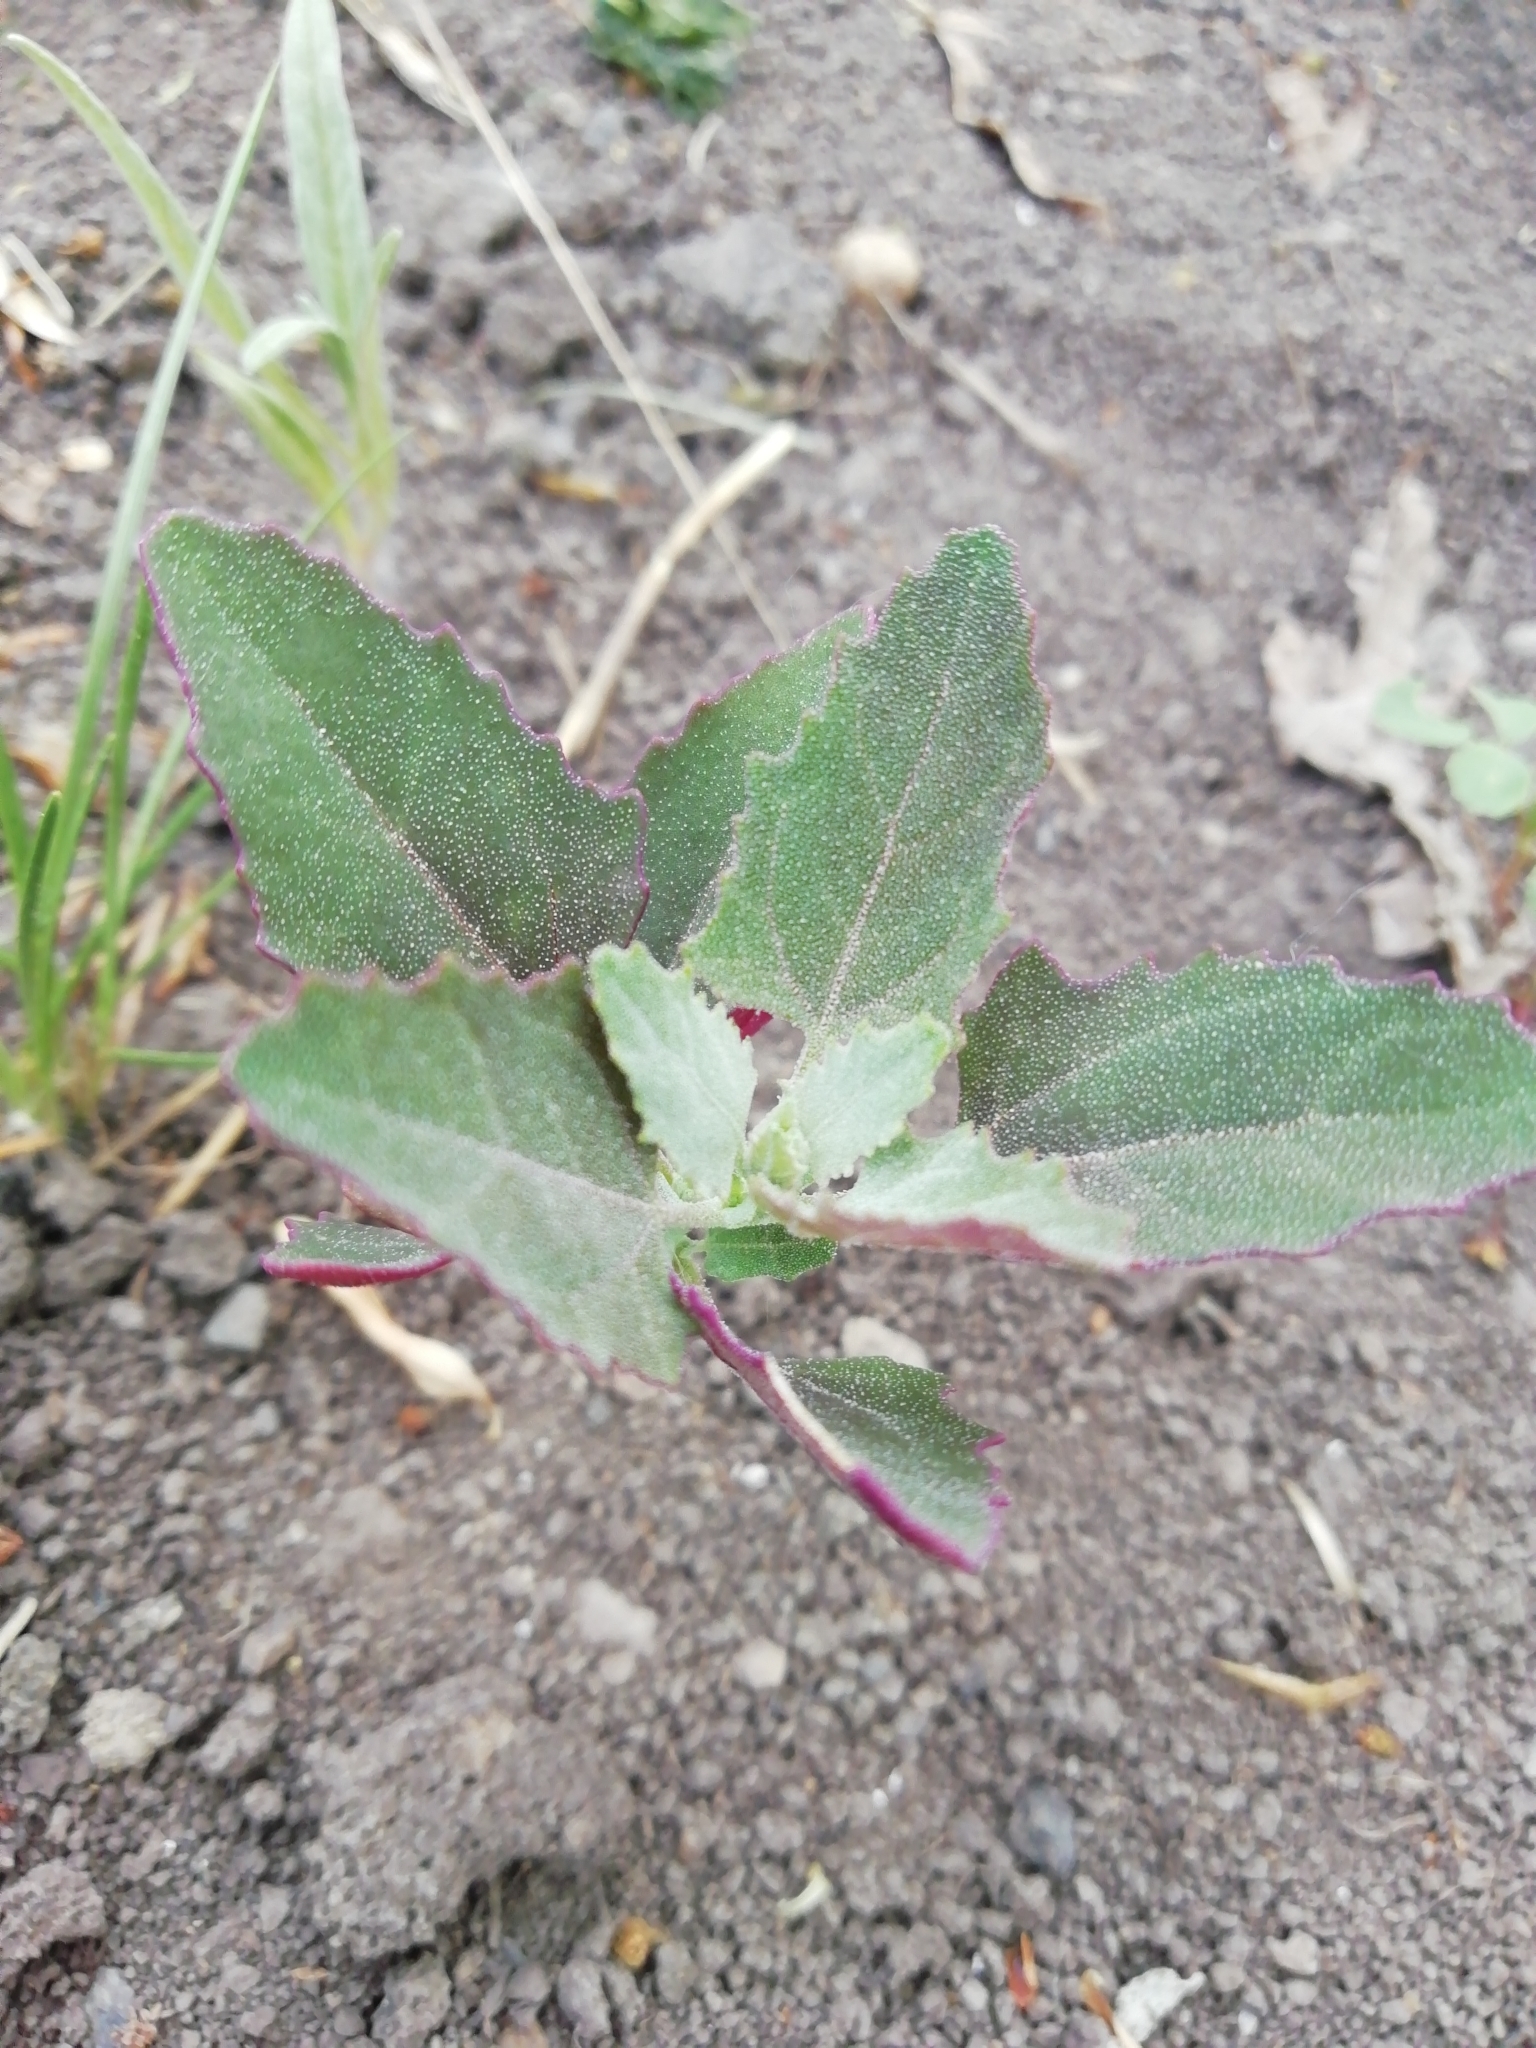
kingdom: Plantae
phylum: Tracheophyta
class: Magnoliopsida
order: Caryophyllales
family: Amaranthaceae
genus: Chenopodium
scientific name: Chenopodium album
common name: Fat-hen
